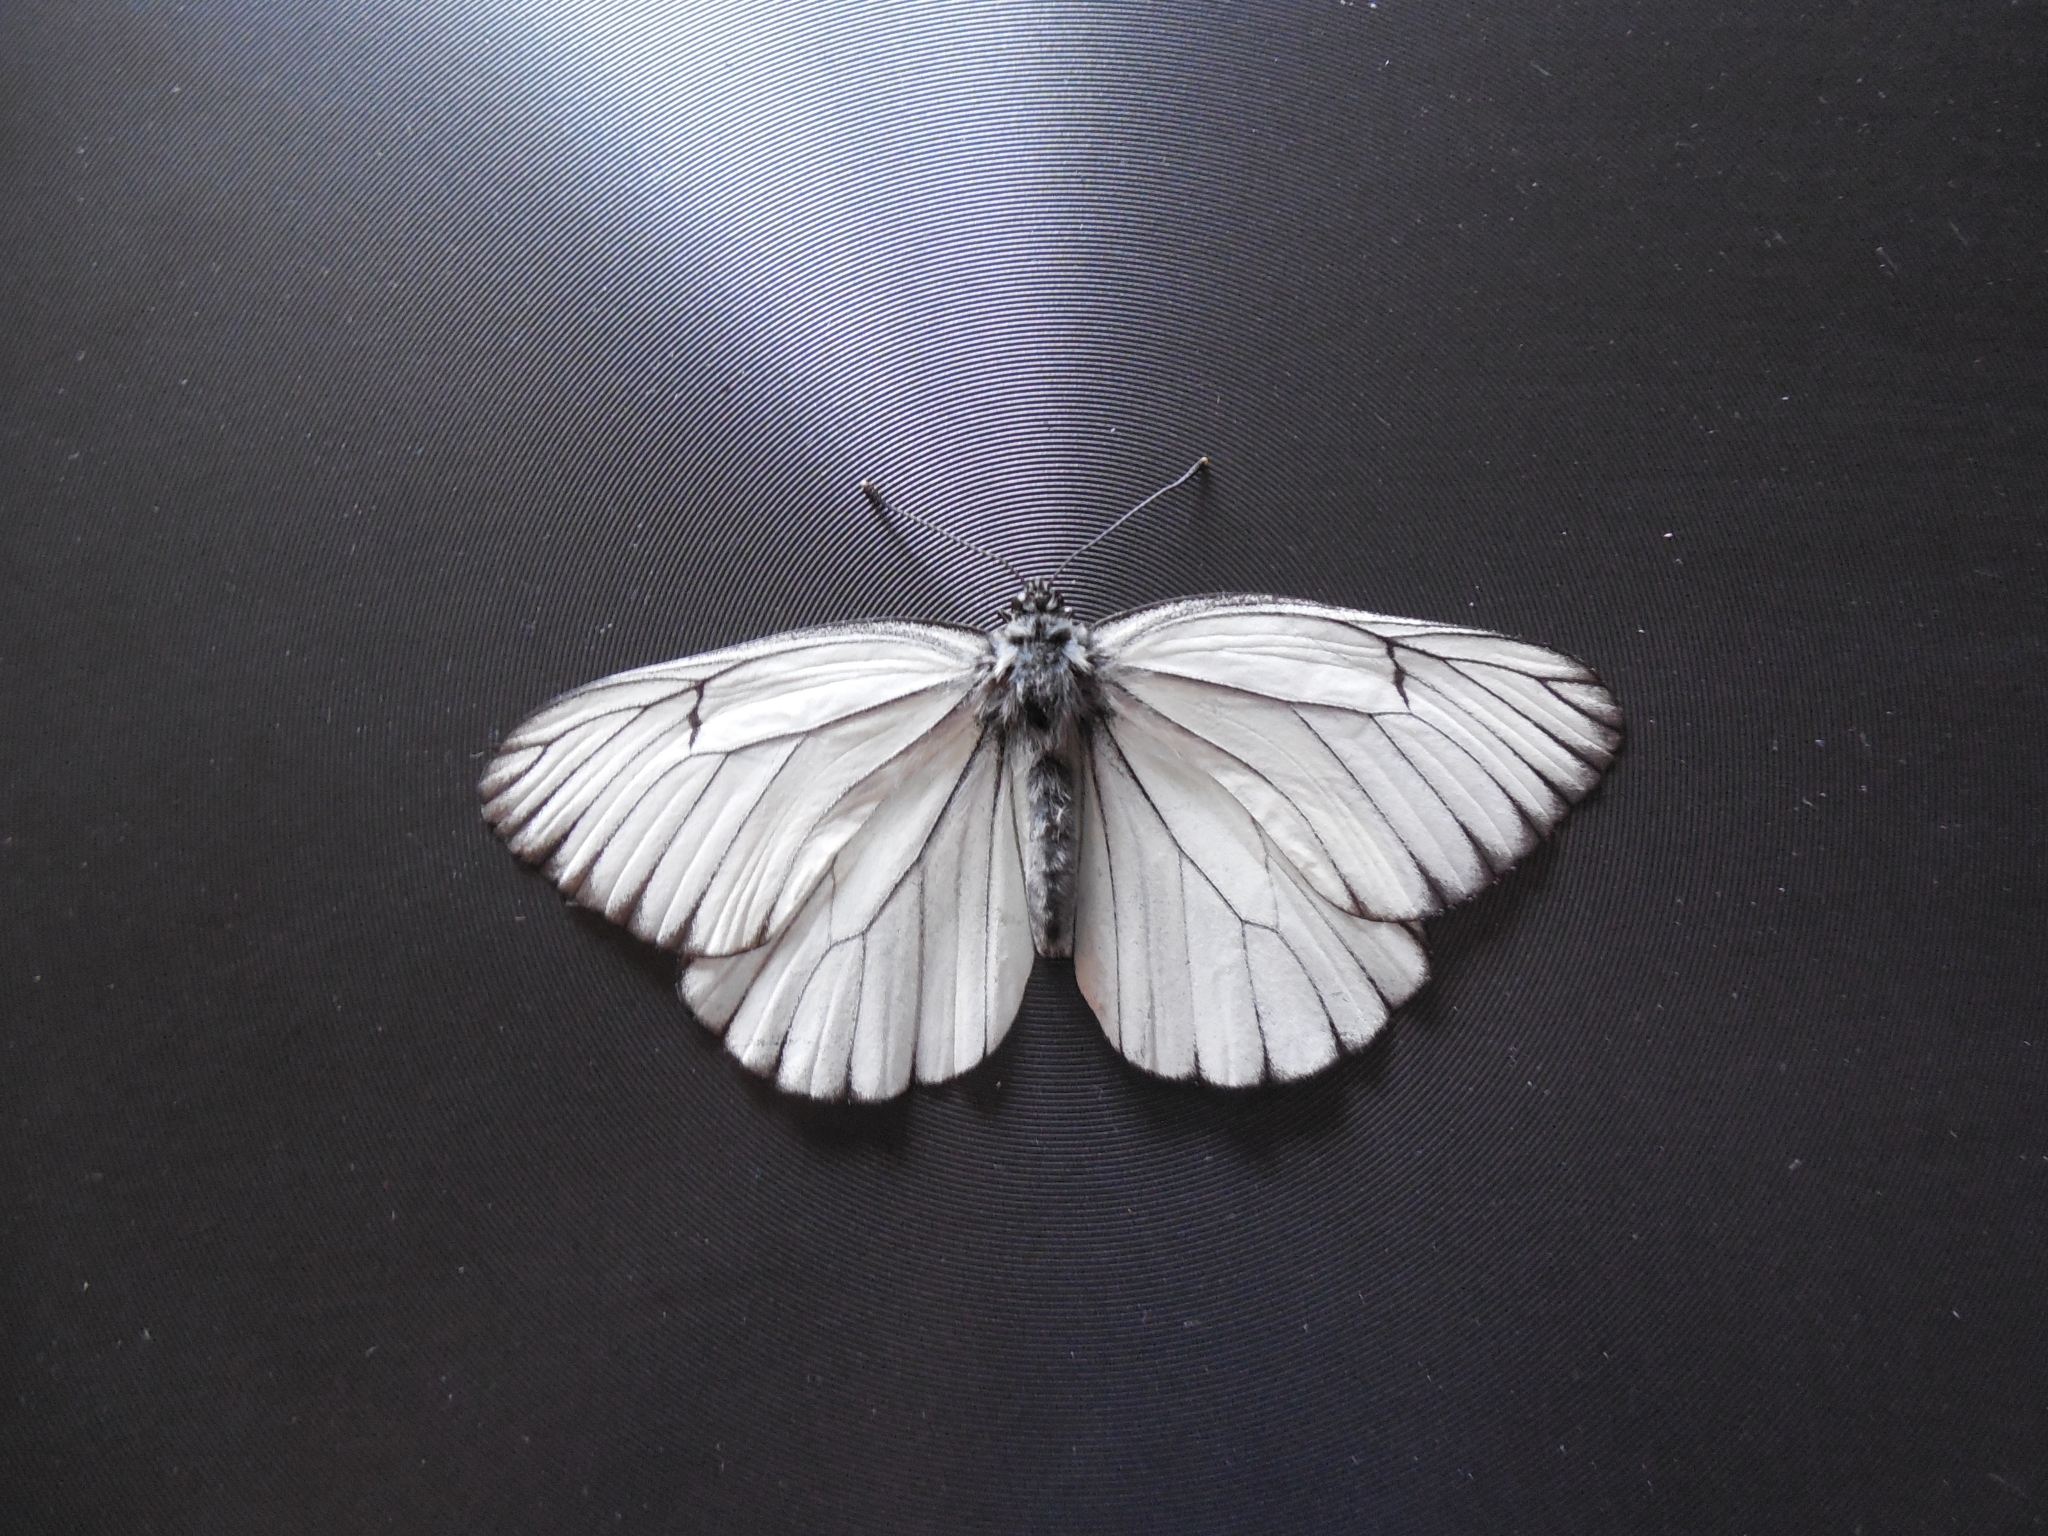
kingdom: Animalia
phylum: Arthropoda
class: Insecta
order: Lepidoptera
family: Pieridae
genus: Aporia
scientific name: Aporia crataegi
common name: Black-veined white
